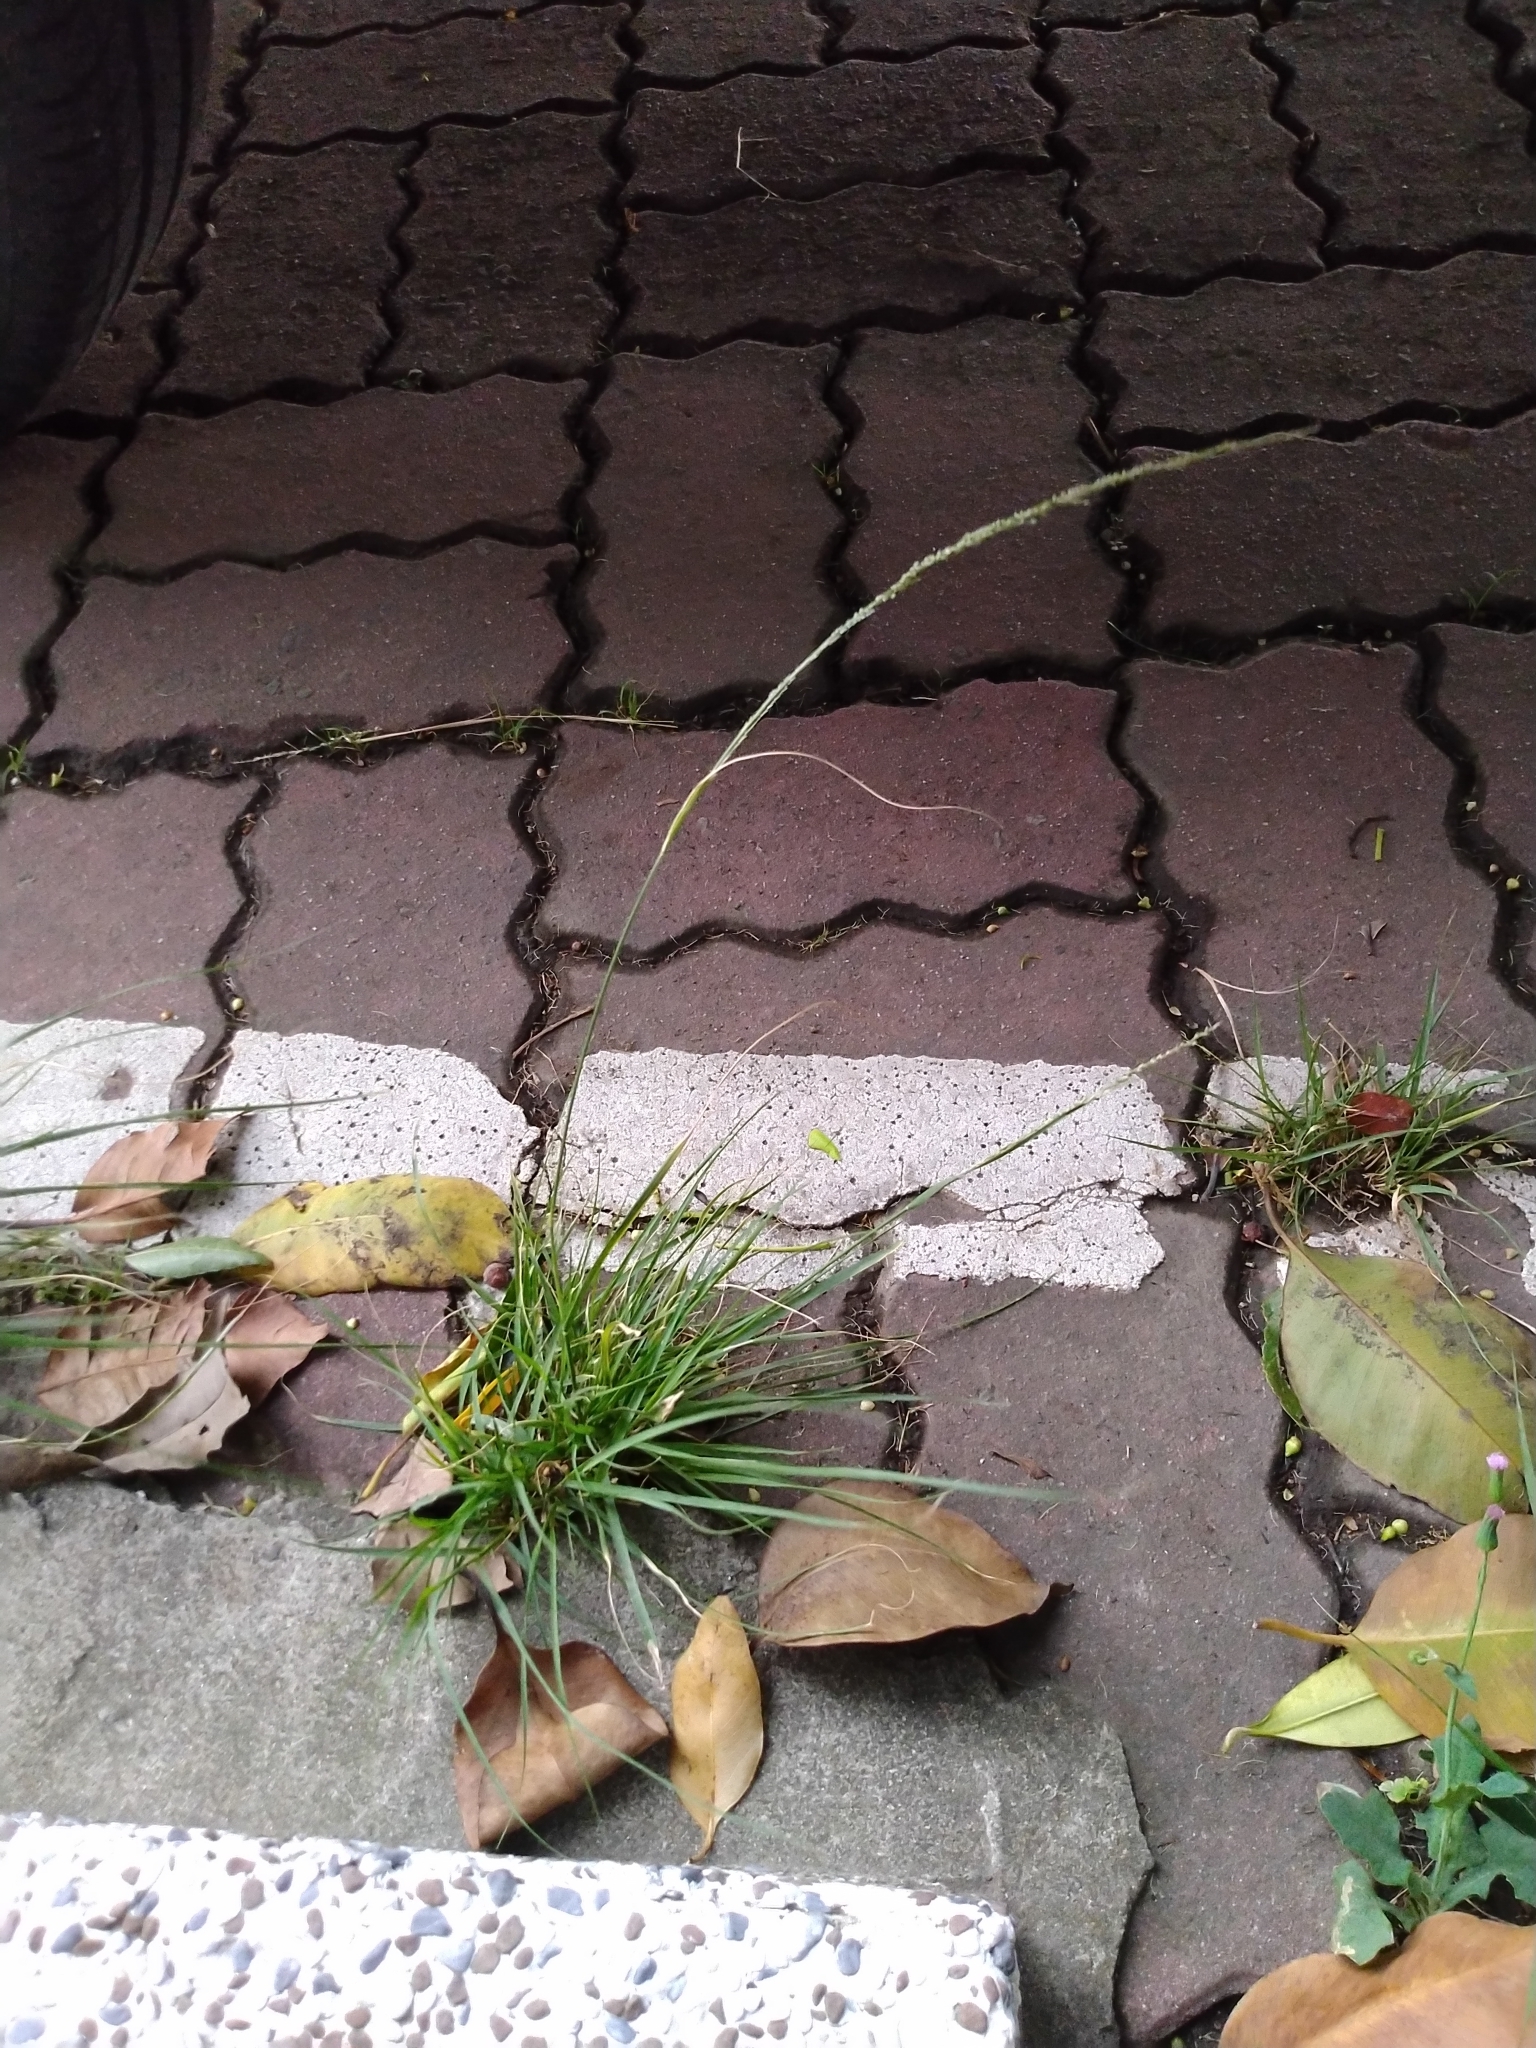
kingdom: Plantae
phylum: Tracheophyta
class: Liliopsida
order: Poales
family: Poaceae
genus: Sporobolus
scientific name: Sporobolus indicus
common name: Smut grass
